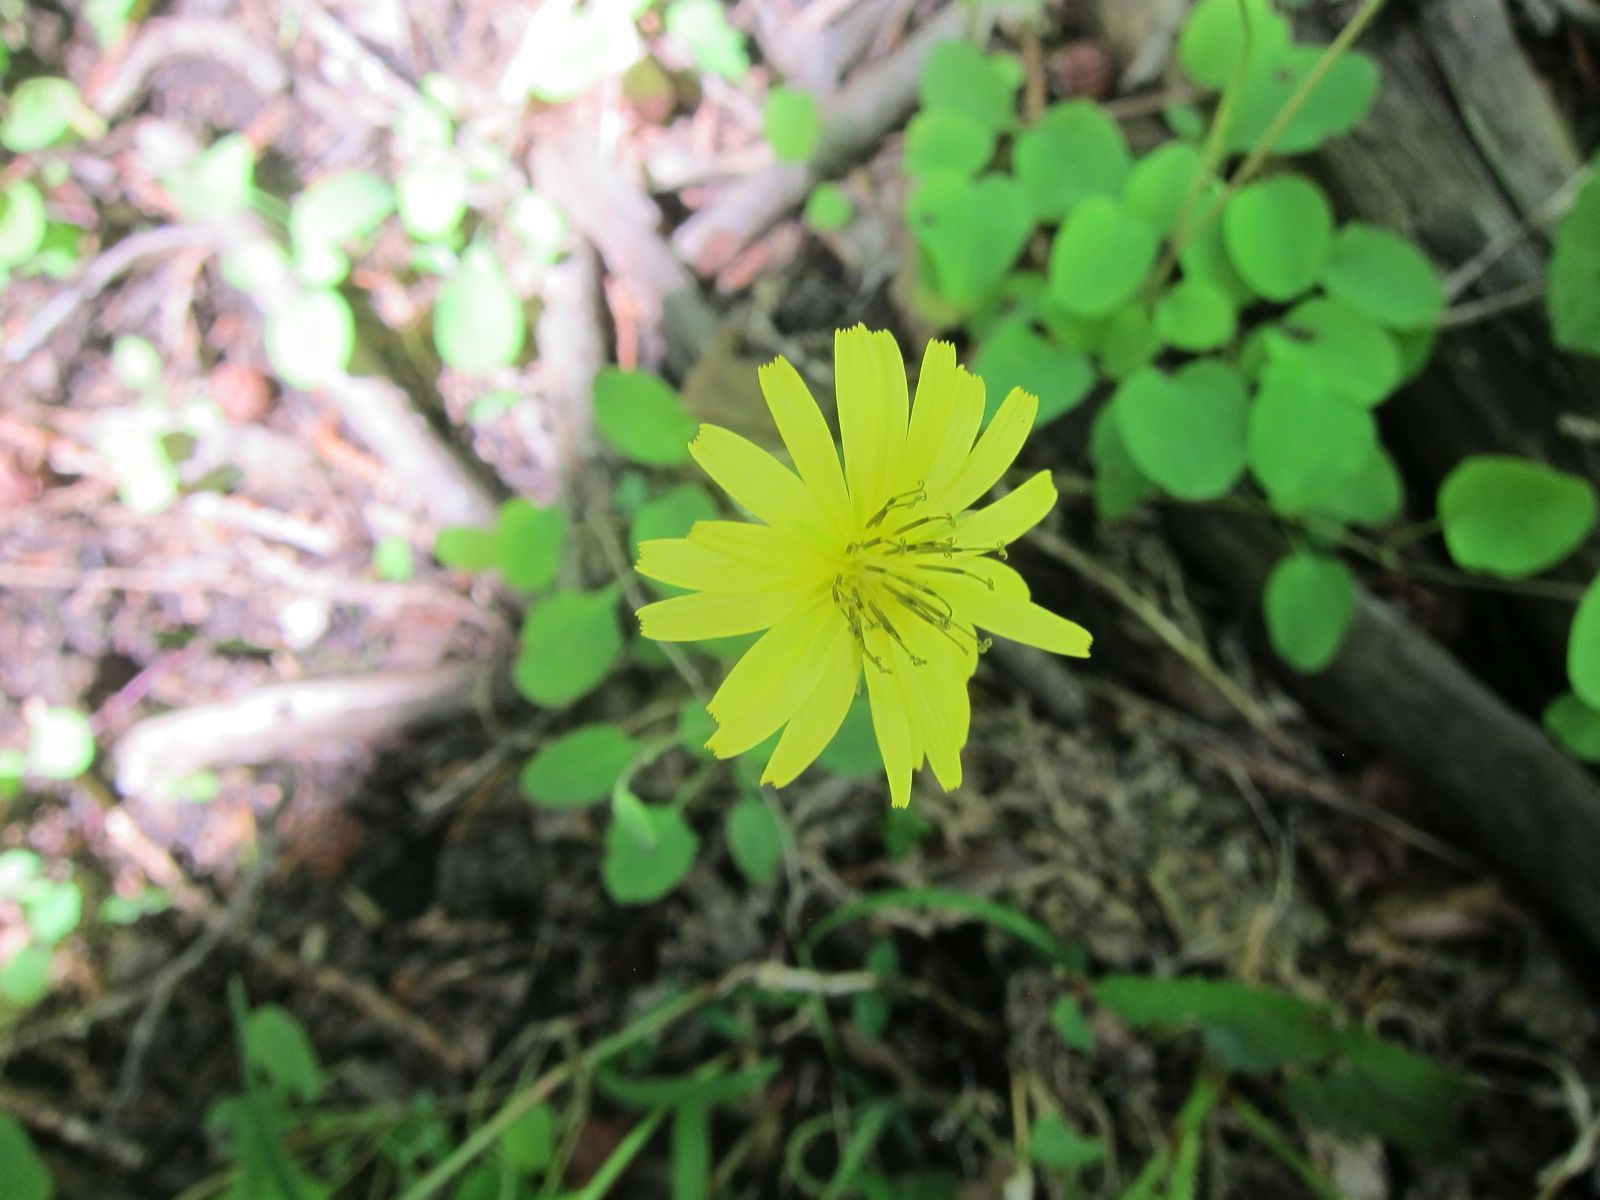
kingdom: Plantae
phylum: Tracheophyta
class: Magnoliopsida
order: Asterales
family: Asteraceae
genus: Ixeris
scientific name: Ixeris stolonifera
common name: Creeping lettuce
